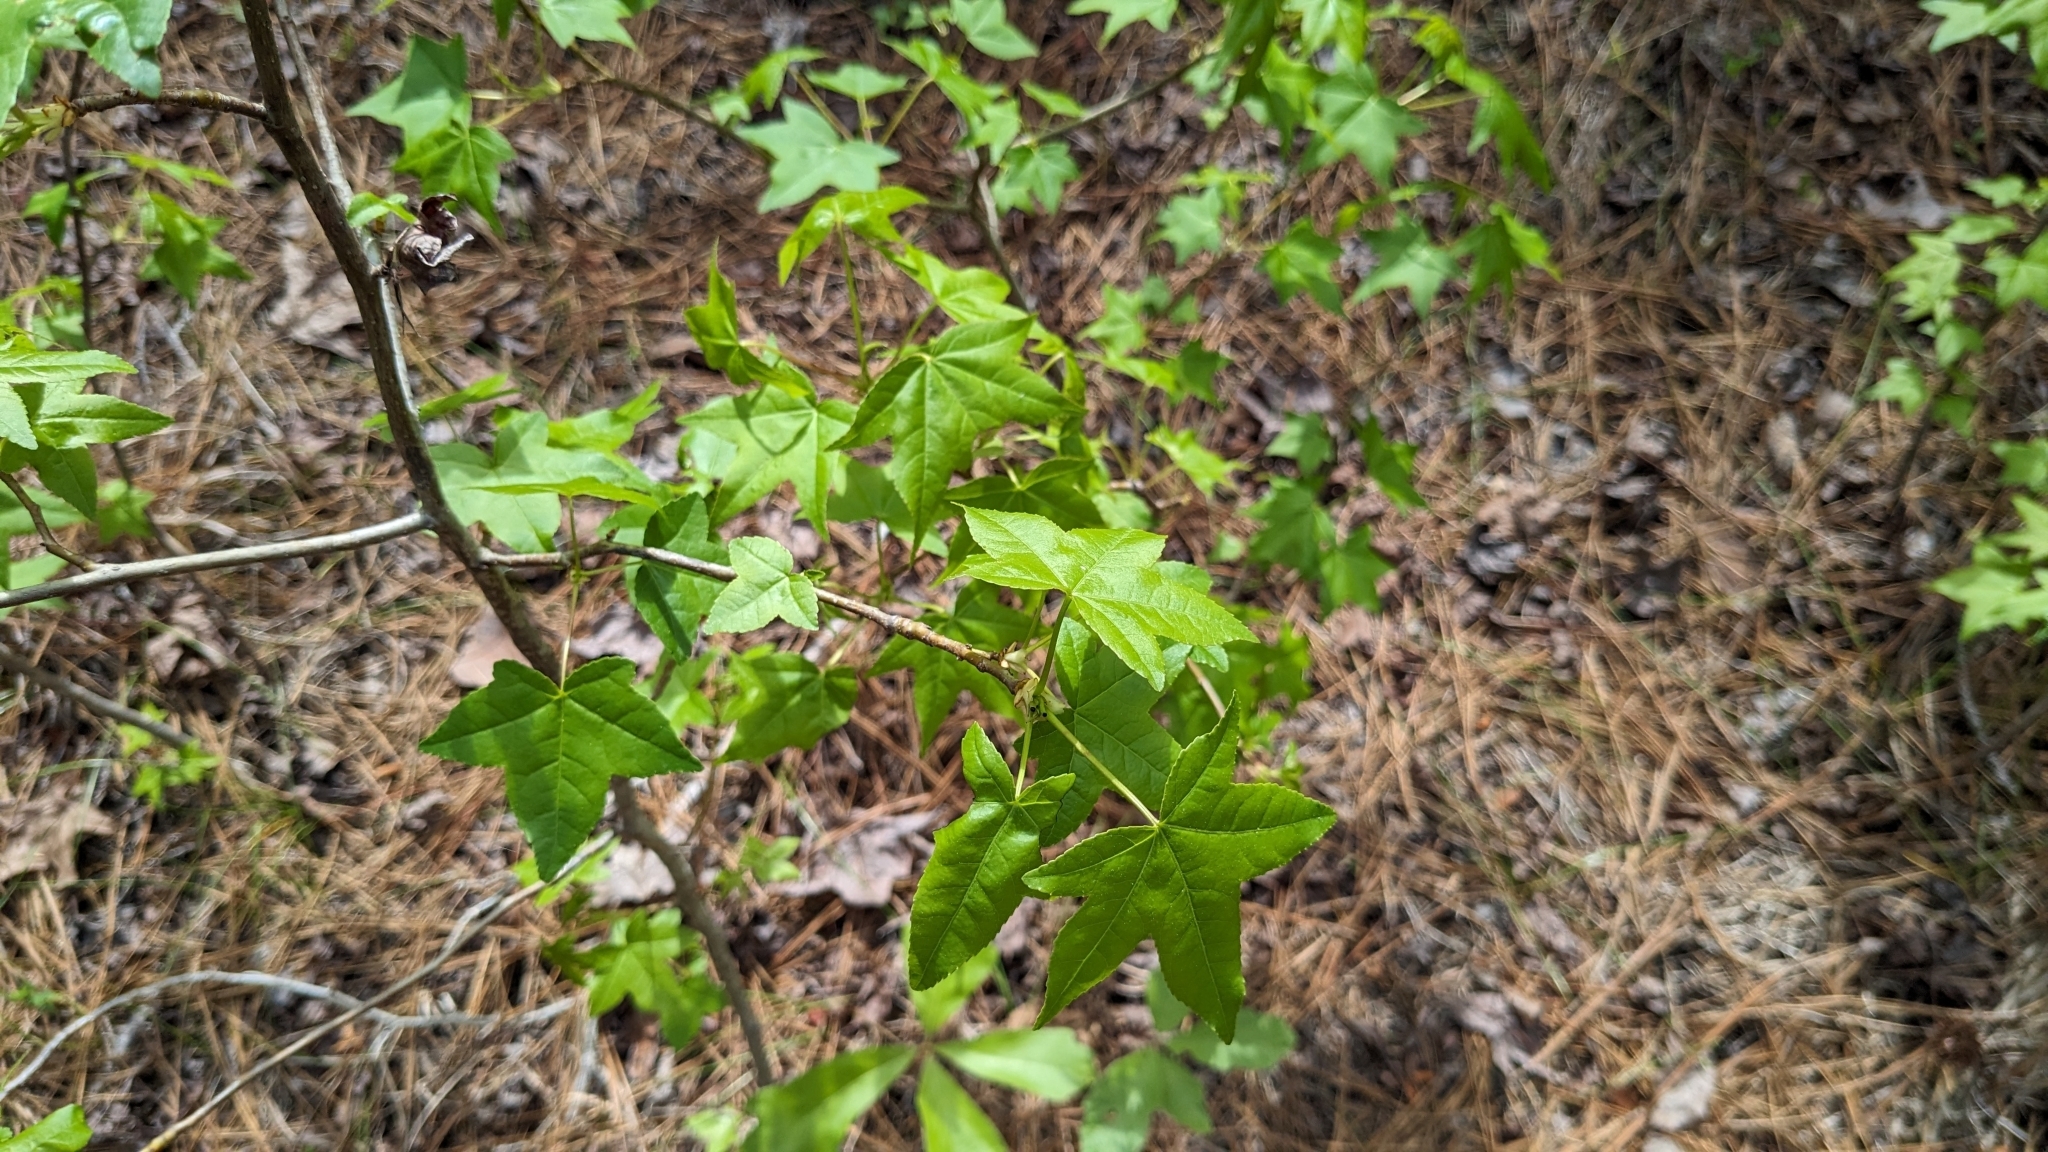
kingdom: Plantae
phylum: Tracheophyta
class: Magnoliopsida
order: Saxifragales
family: Altingiaceae
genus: Liquidambar
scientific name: Liquidambar styraciflua
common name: Sweet gum
